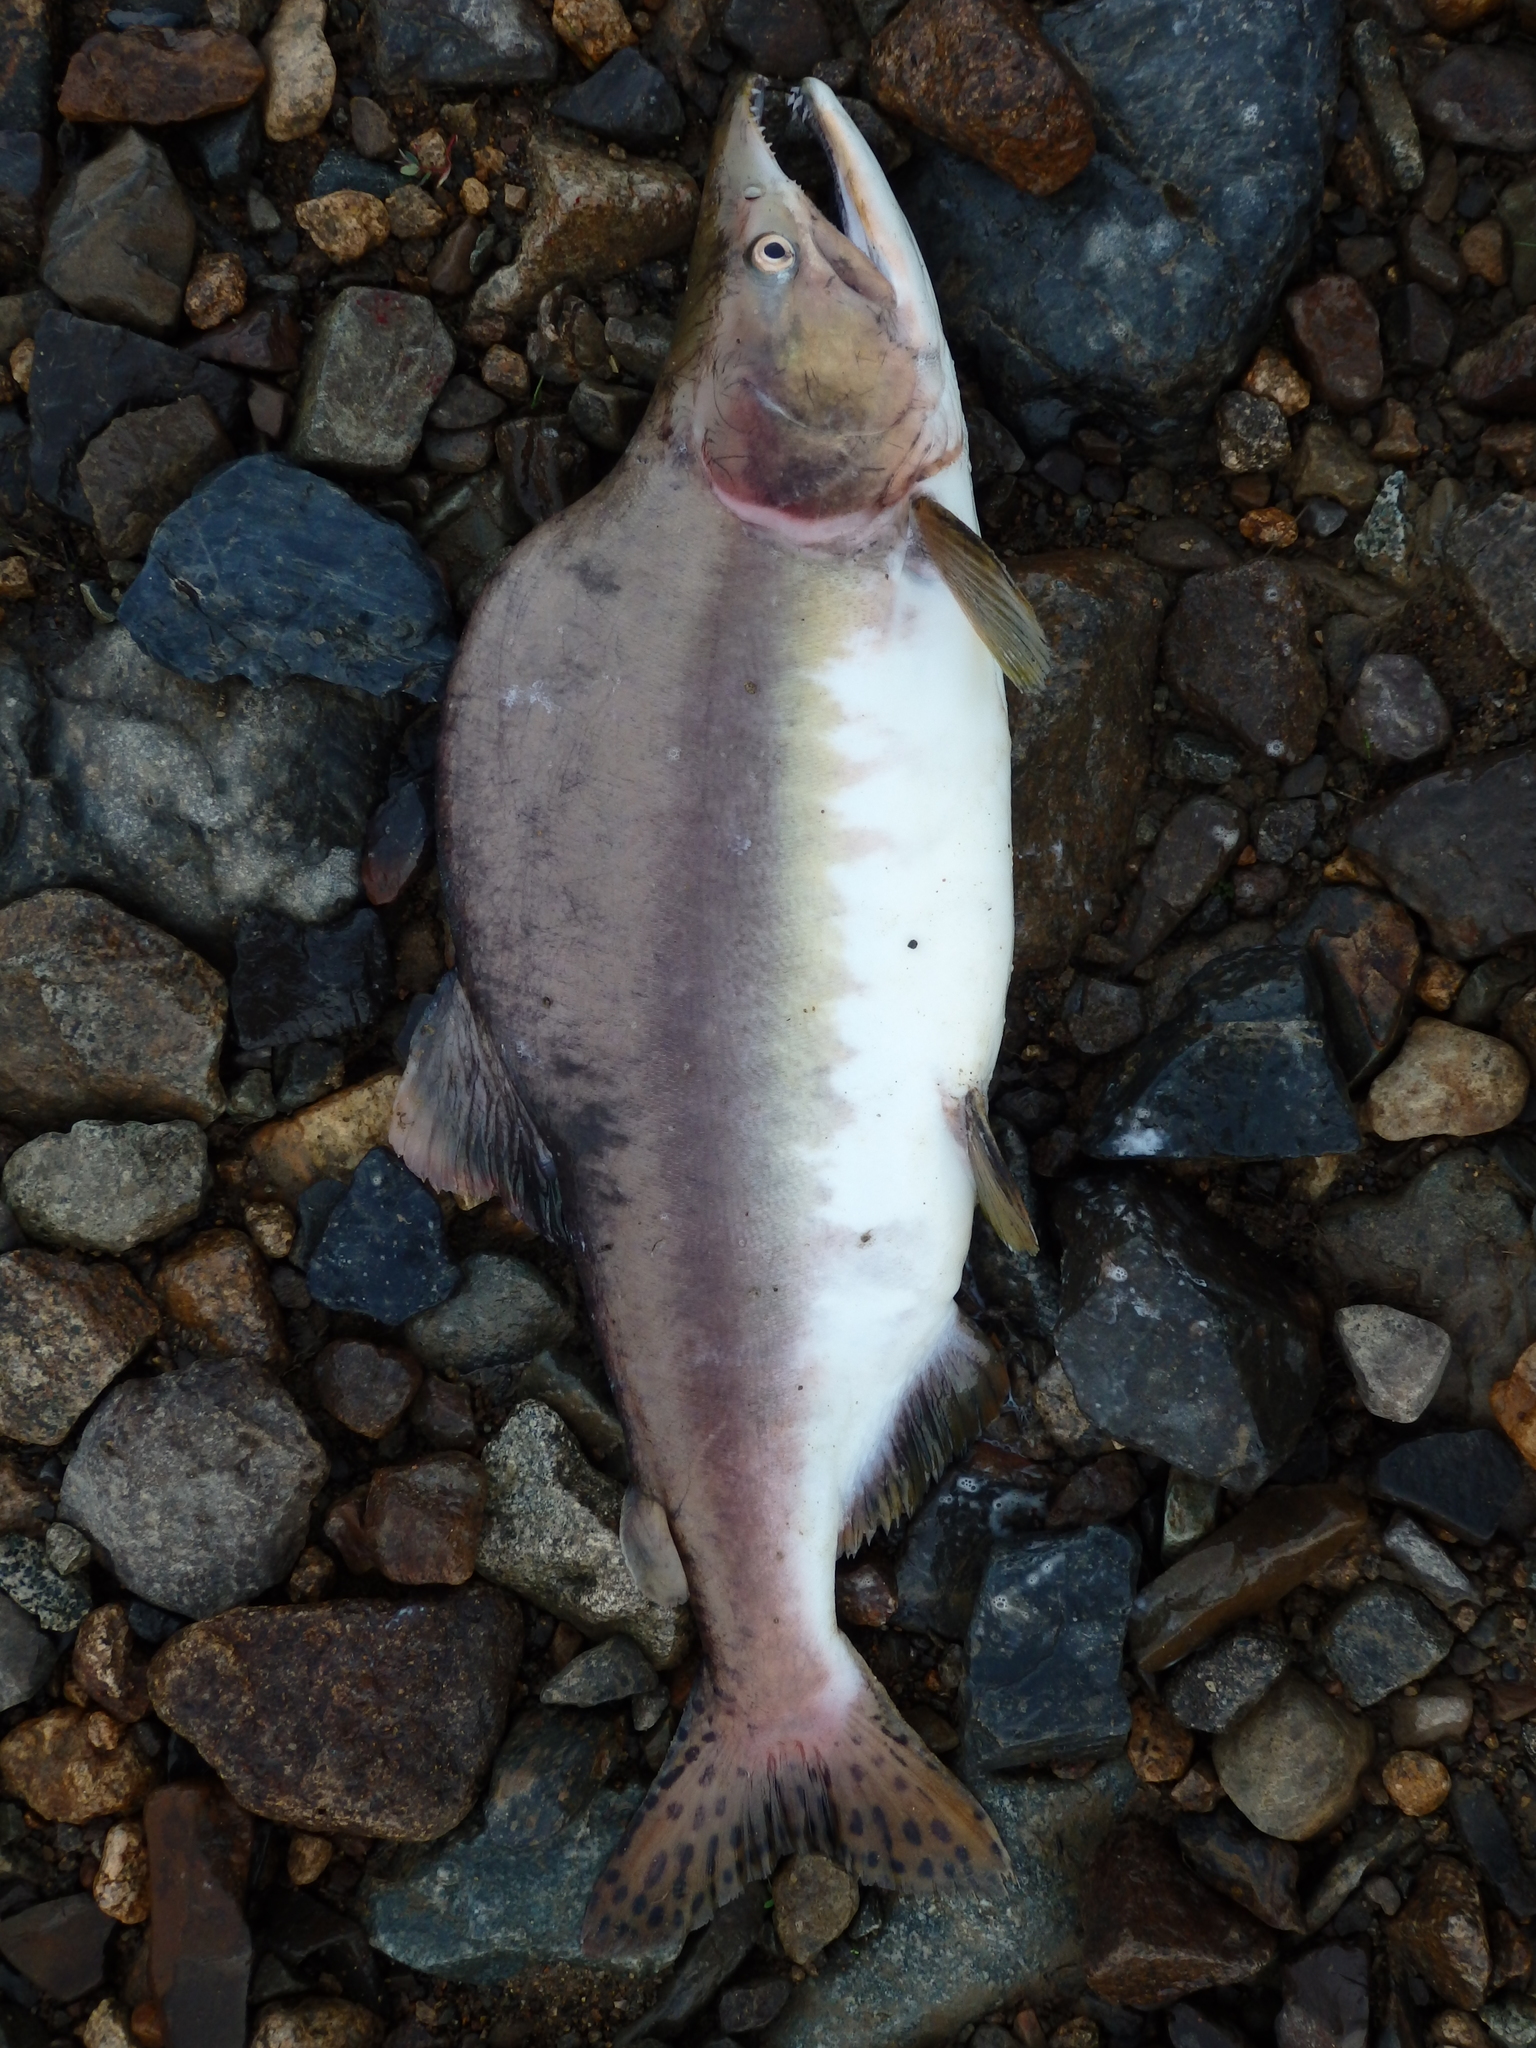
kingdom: Animalia
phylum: Chordata
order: Salmoniformes
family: Salmonidae
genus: Oncorhynchus
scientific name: Oncorhynchus gorbuscha
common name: Humpback salmon
